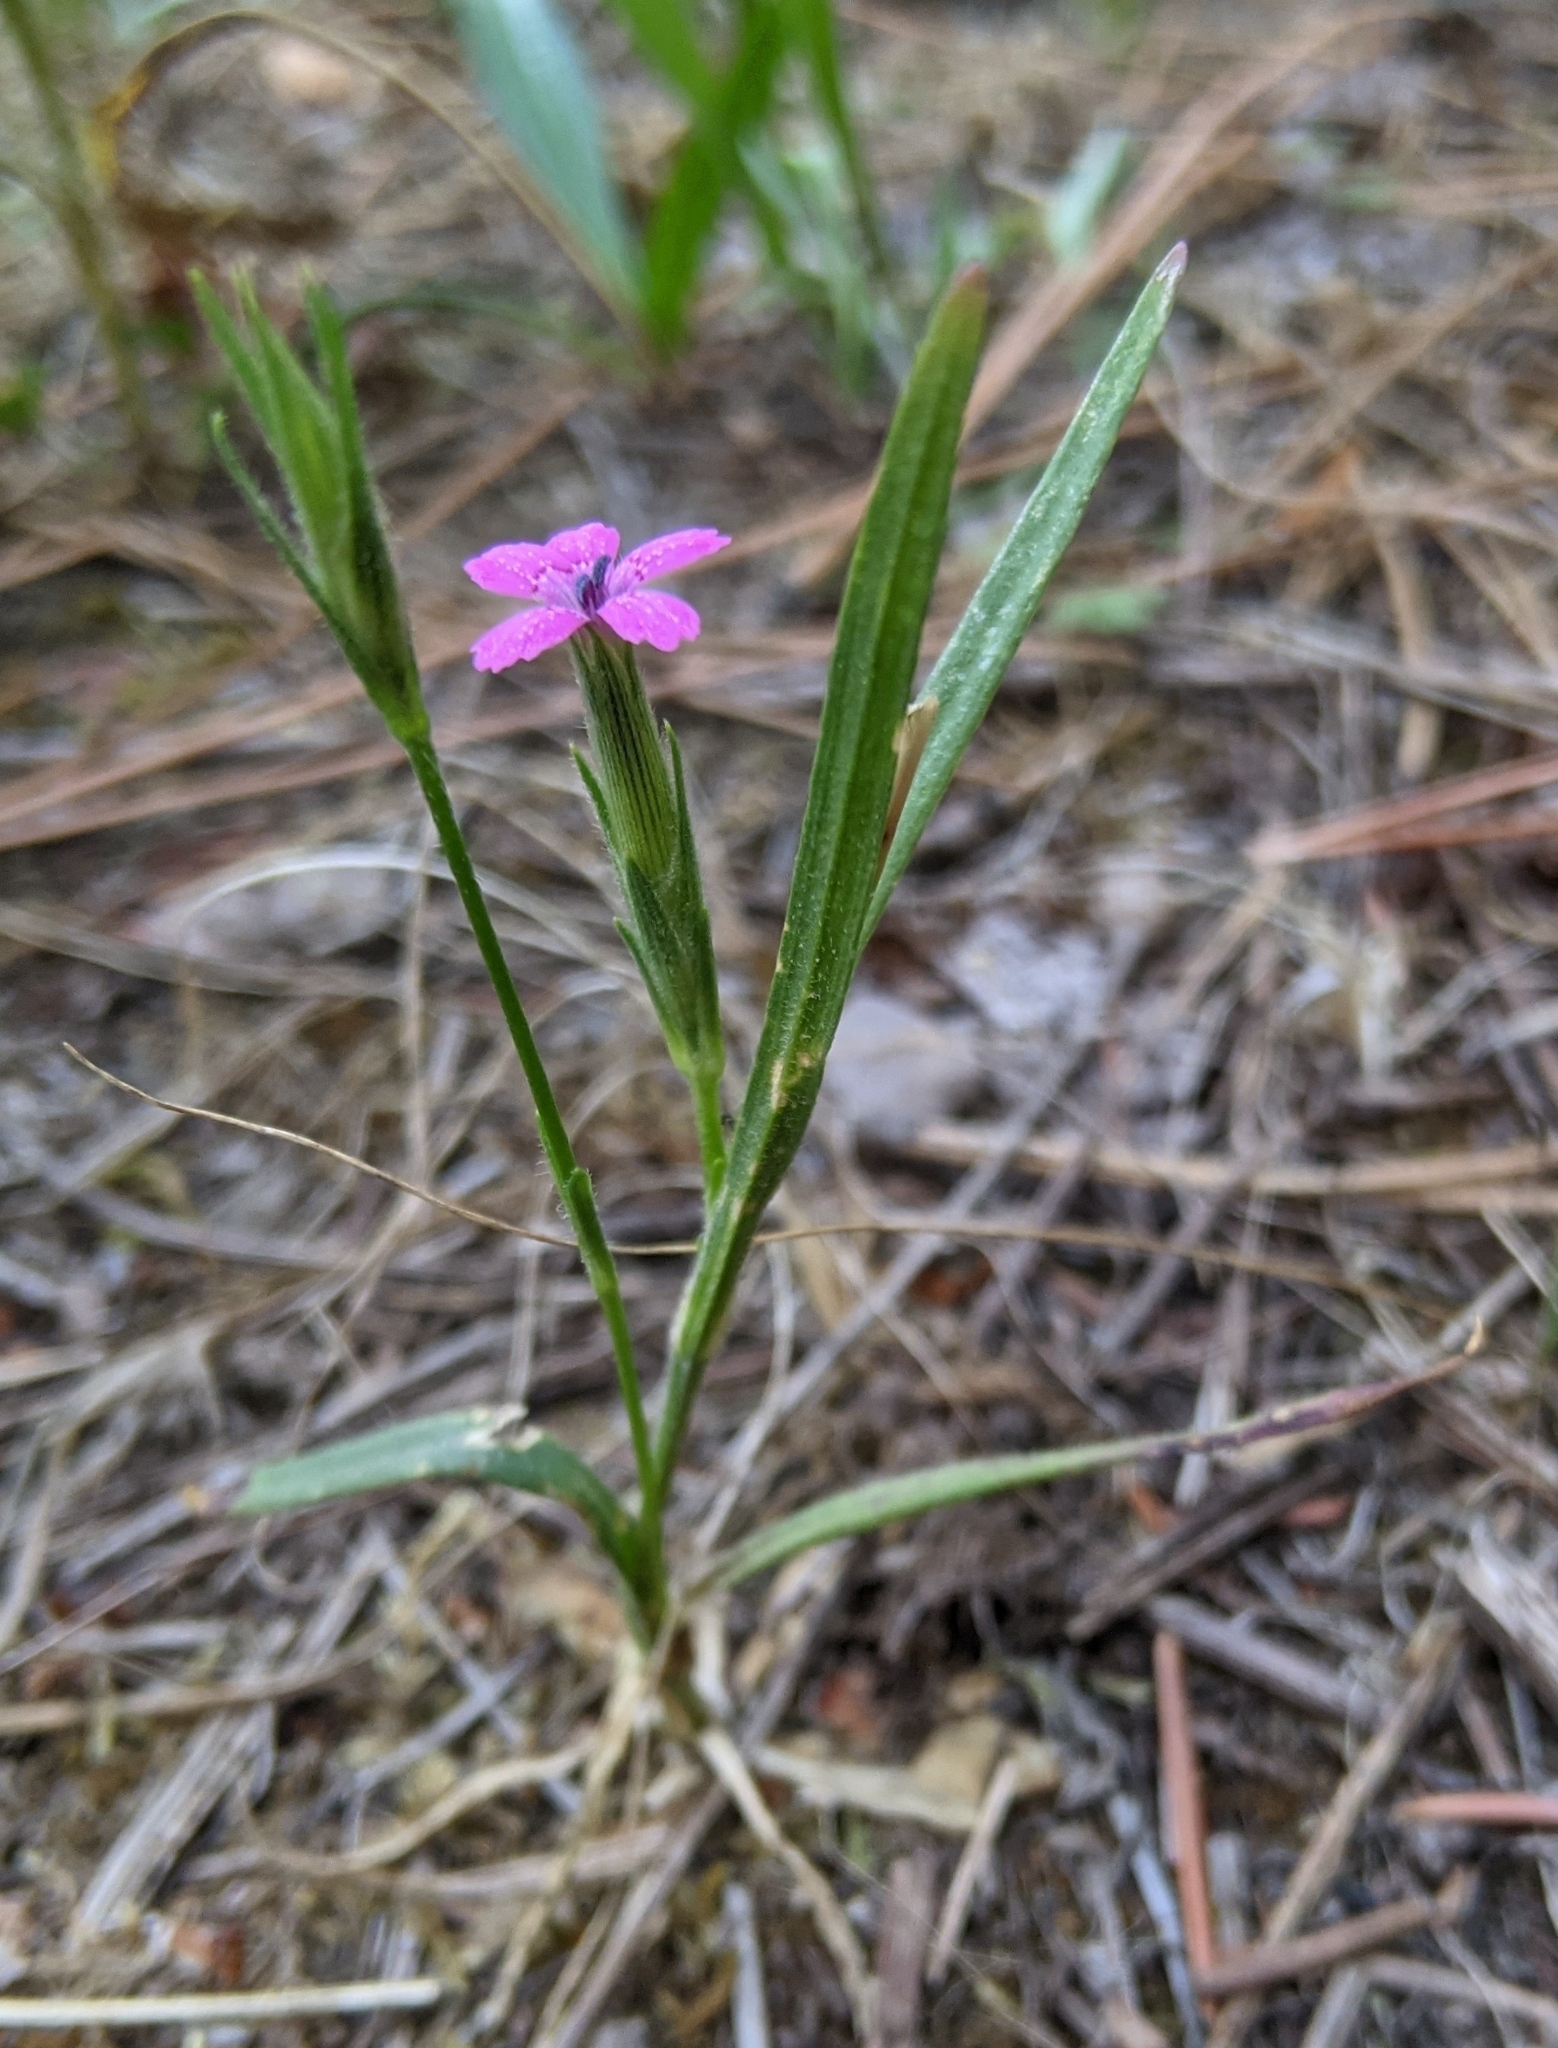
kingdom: Plantae
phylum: Tracheophyta
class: Magnoliopsida
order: Caryophyllales
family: Caryophyllaceae
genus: Dianthus
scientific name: Dianthus armeria
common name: Deptford pink
